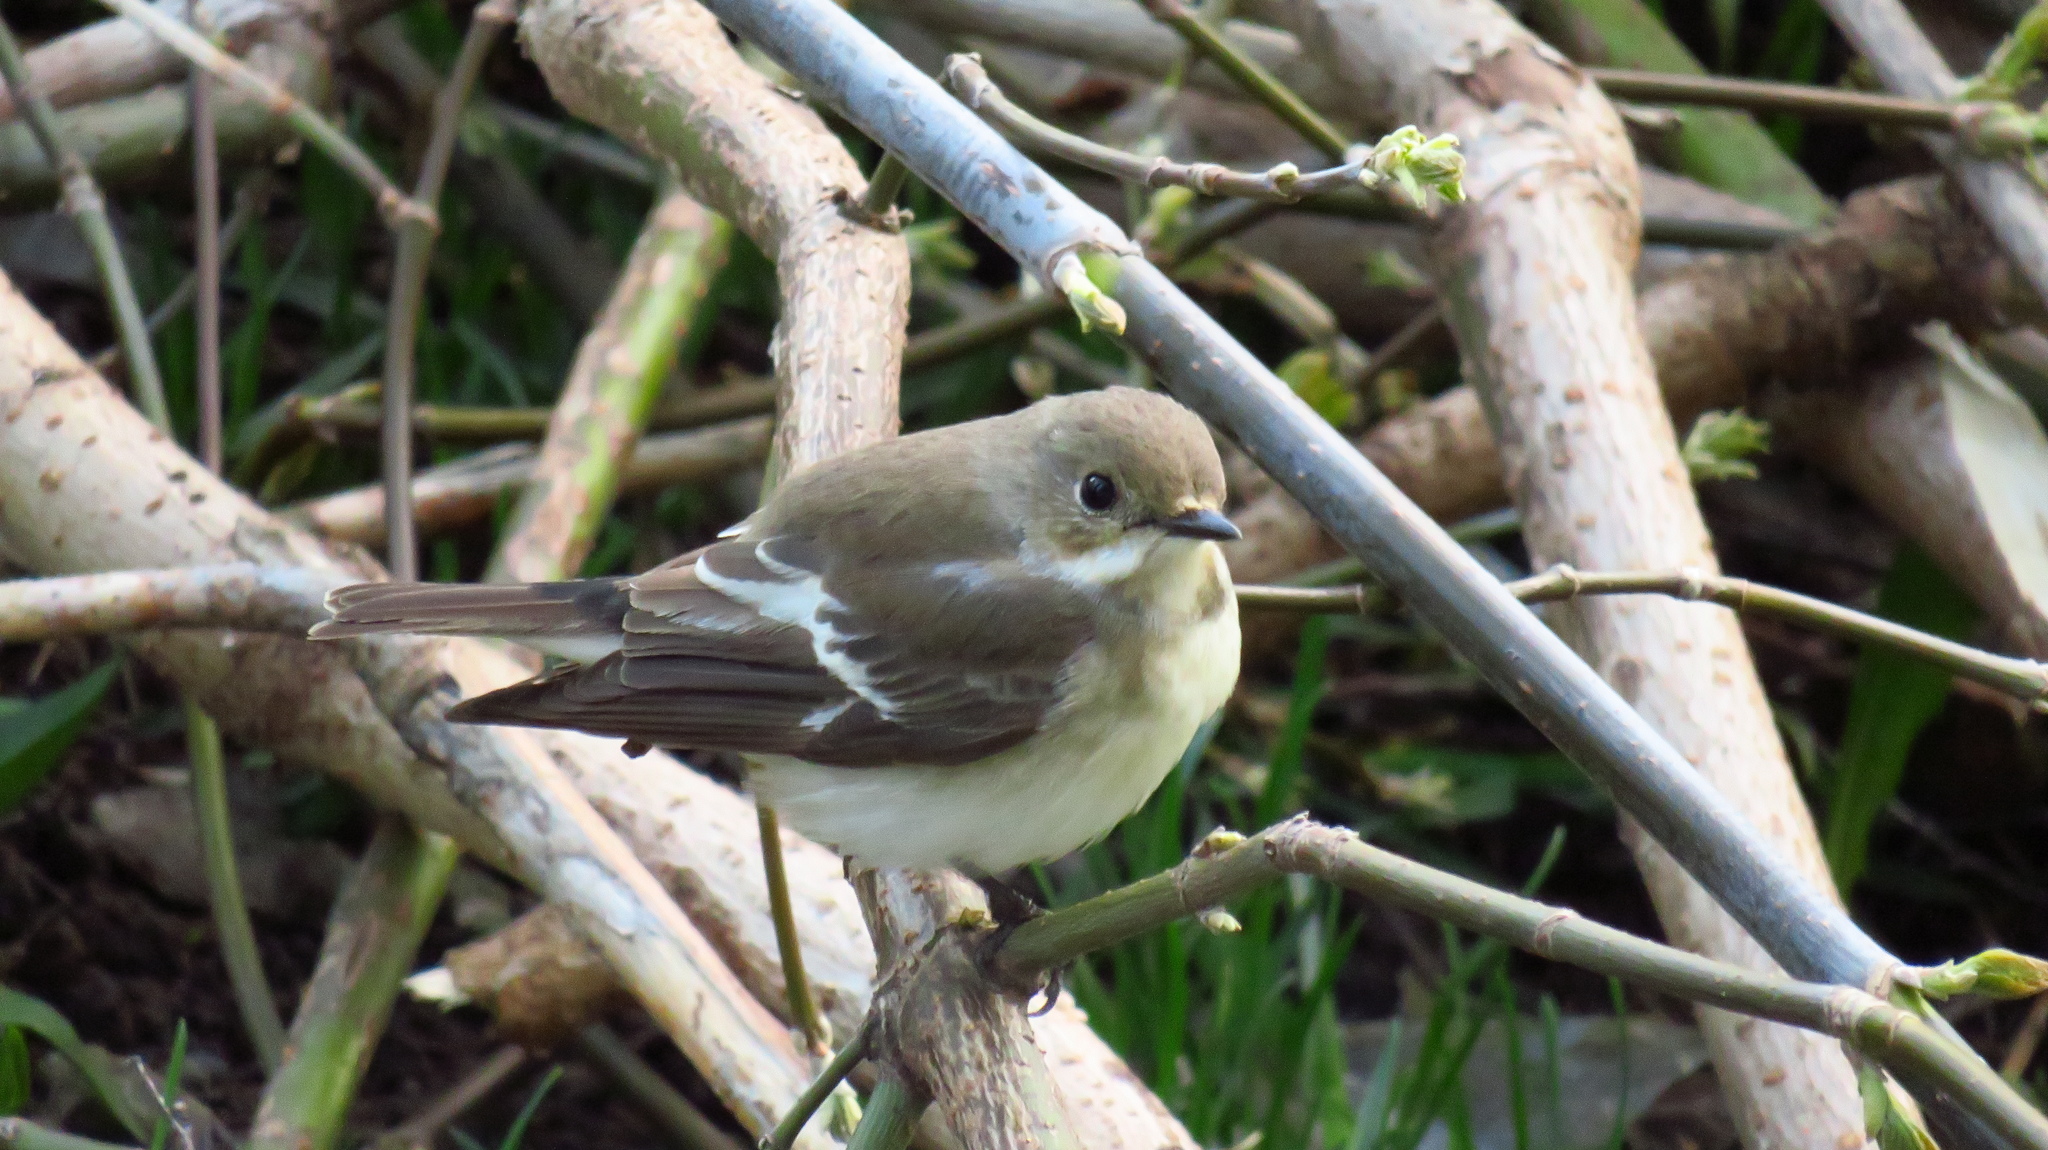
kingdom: Animalia
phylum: Chordata
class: Aves
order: Passeriformes
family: Muscicapidae
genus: Ficedula
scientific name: Ficedula hypoleuca
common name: European pied flycatcher
